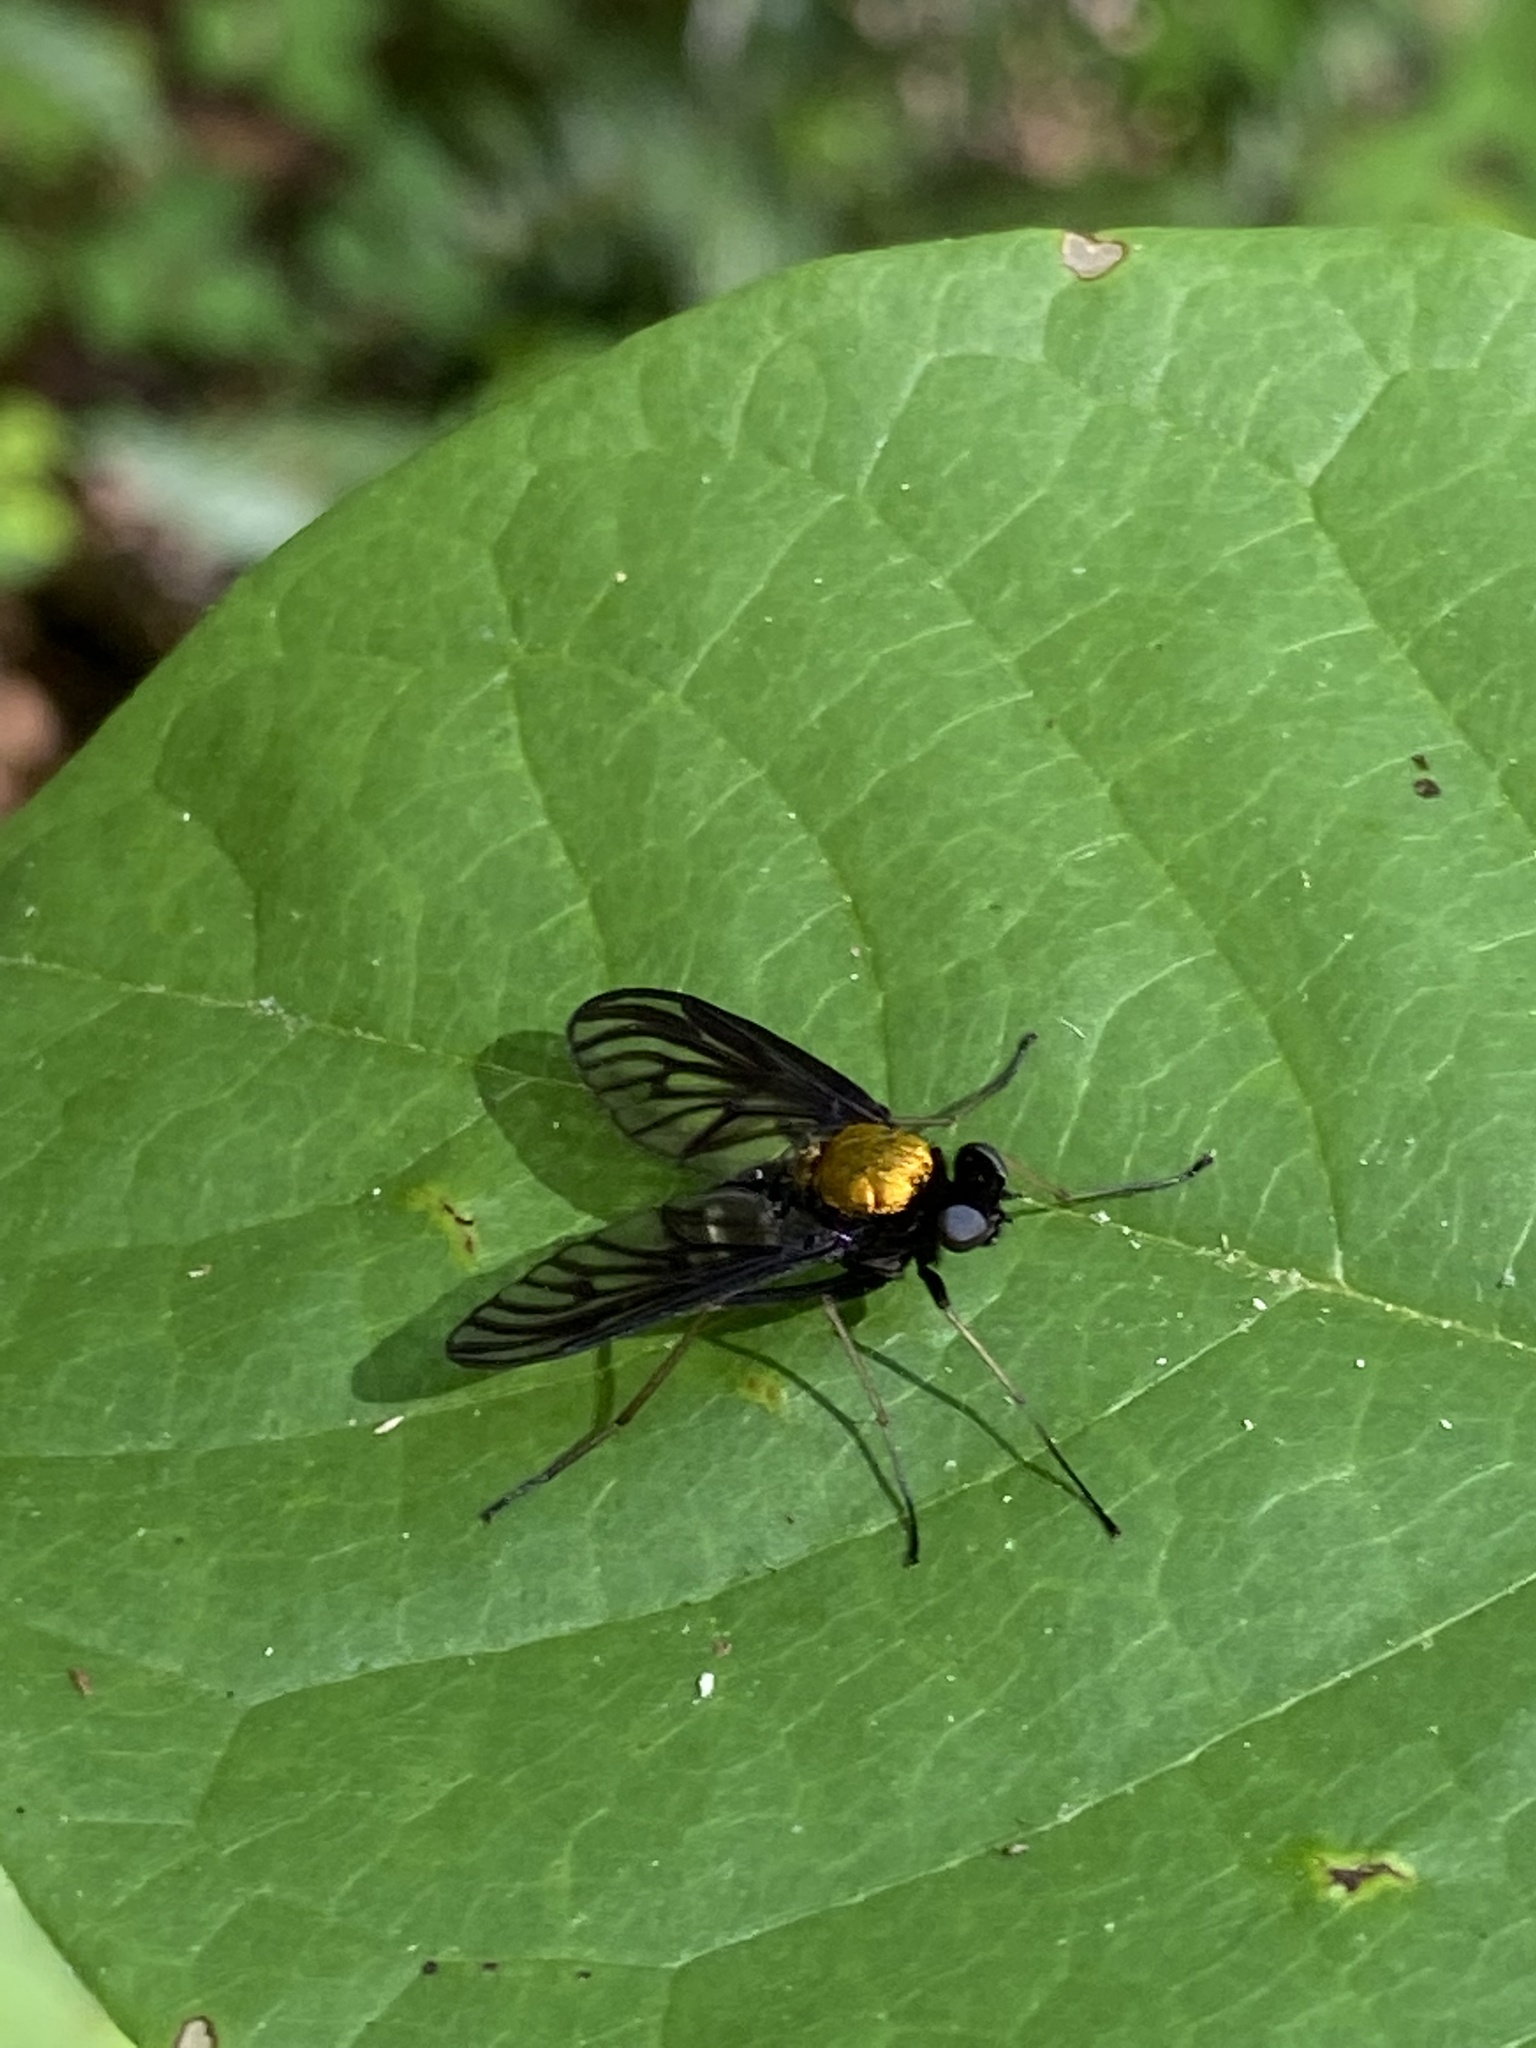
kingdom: Animalia
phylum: Arthropoda
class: Insecta
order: Diptera
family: Rhagionidae
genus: Chrysopilus
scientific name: Chrysopilus thoracicus
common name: Golden-backed snipe fly
